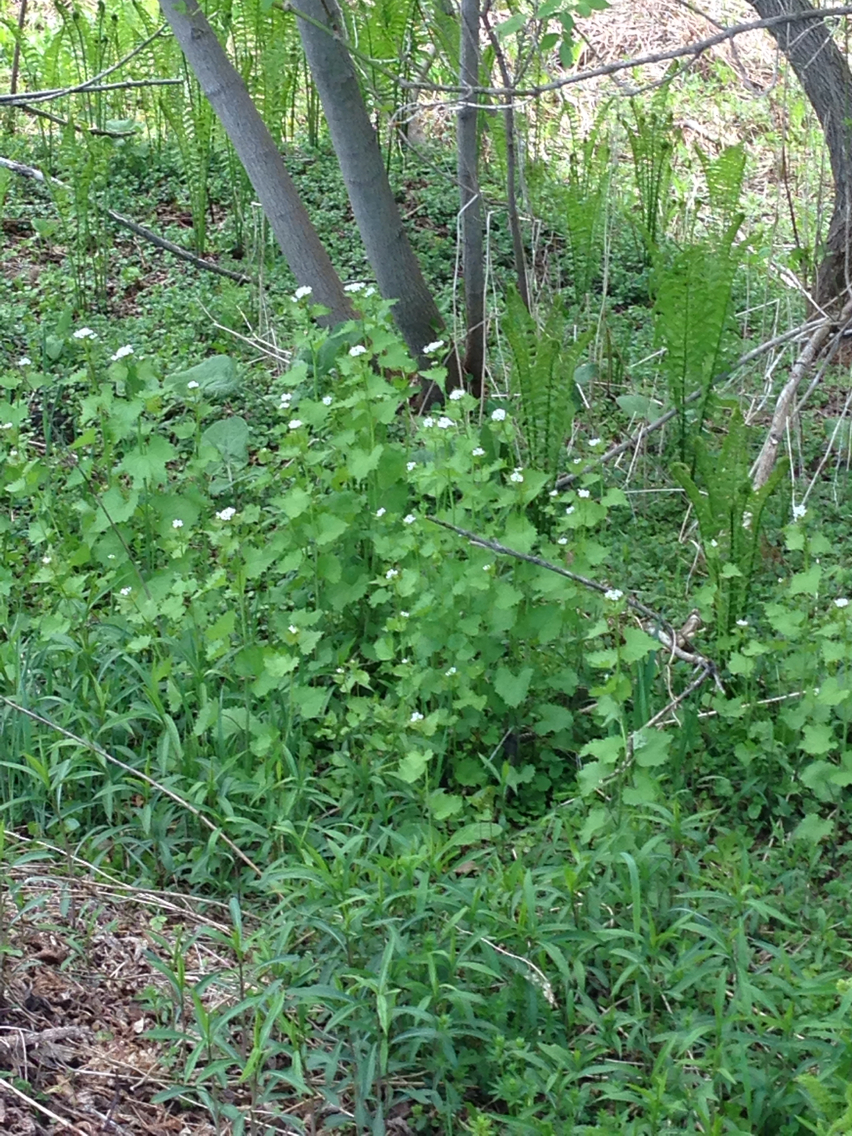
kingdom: Plantae
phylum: Tracheophyta
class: Magnoliopsida
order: Brassicales
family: Brassicaceae
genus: Alliaria
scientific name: Alliaria petiolata
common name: Garlic mustard
